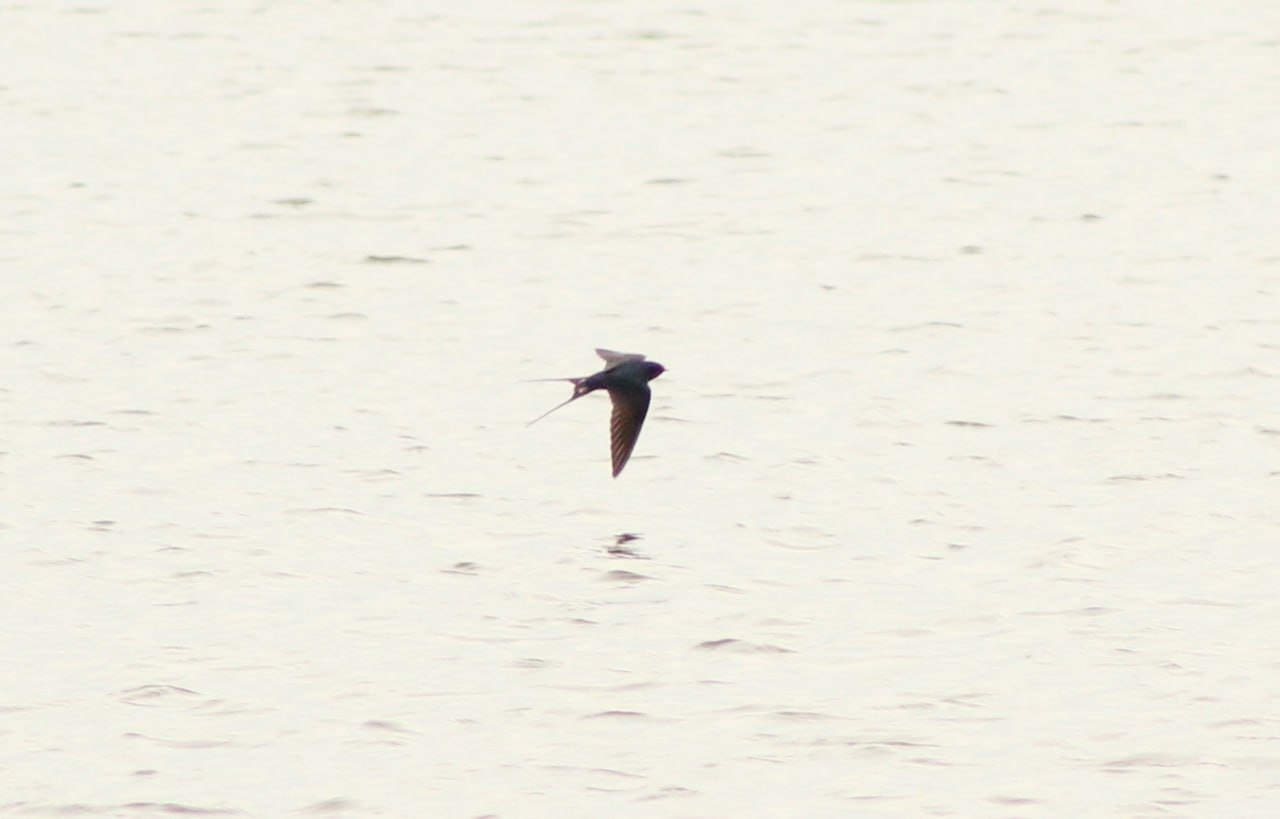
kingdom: Animalia
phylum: Chordata
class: Aves
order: Passeriformes
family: Hirundinidae
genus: Hirundo
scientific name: Hirundo rustica
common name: Barn swallow
